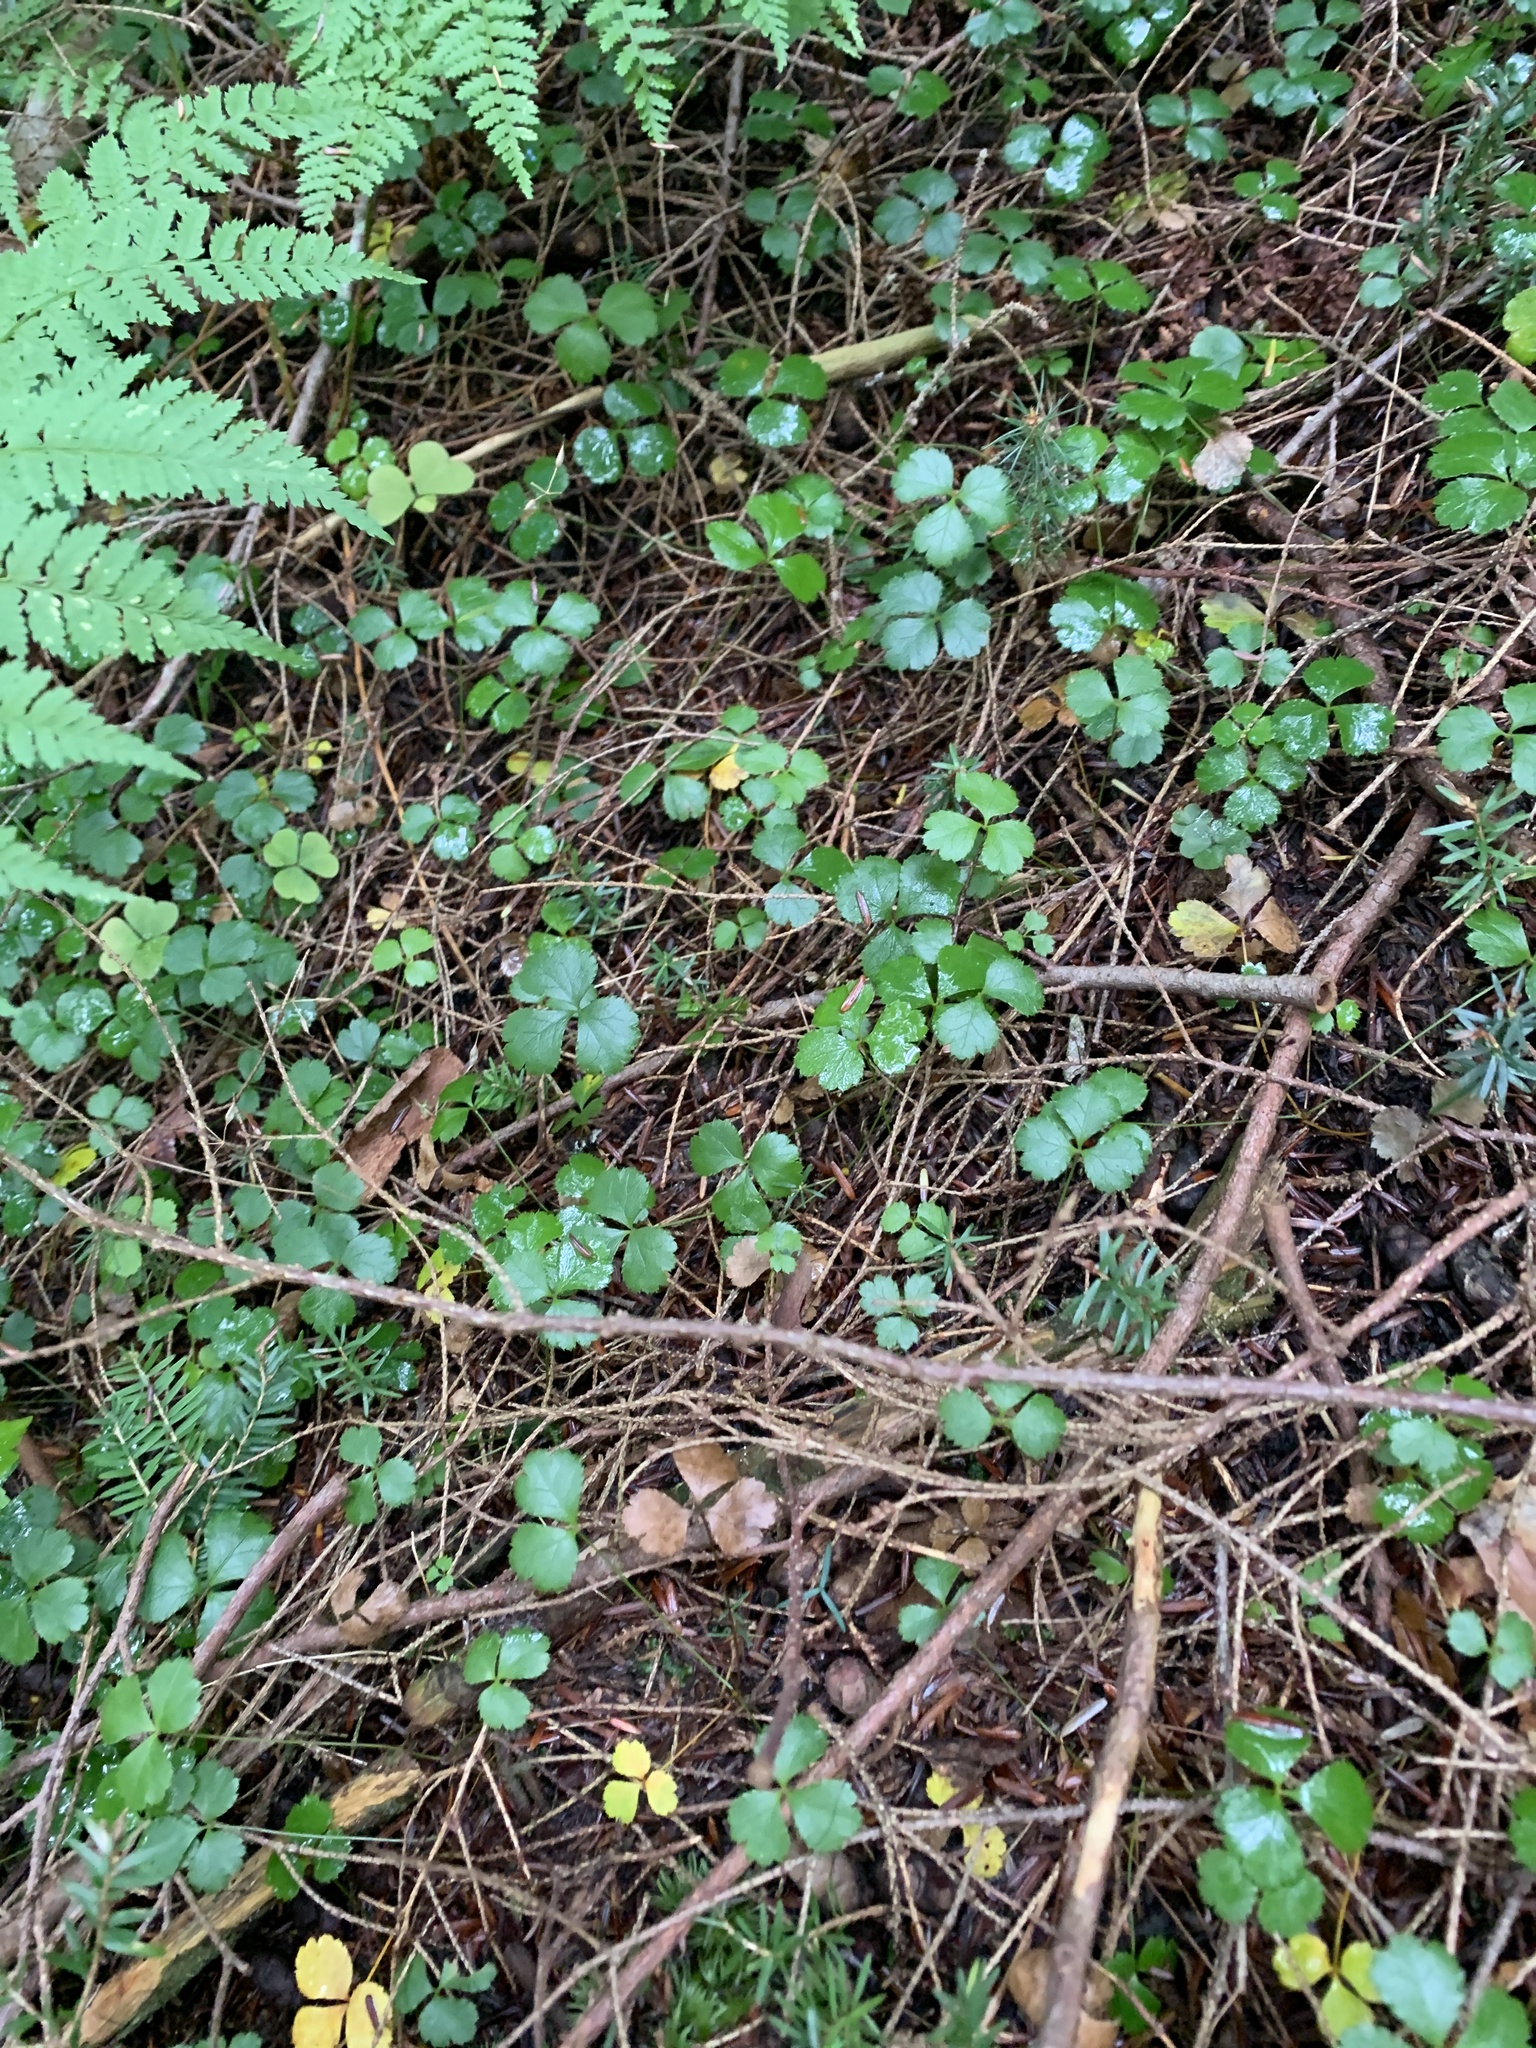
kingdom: Plantae
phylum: Tracheophyta
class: Magnoliopsida
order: Ranunculales
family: Ranunculaceae
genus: Coptis
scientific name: Coptis trifolia
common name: Canker-root
